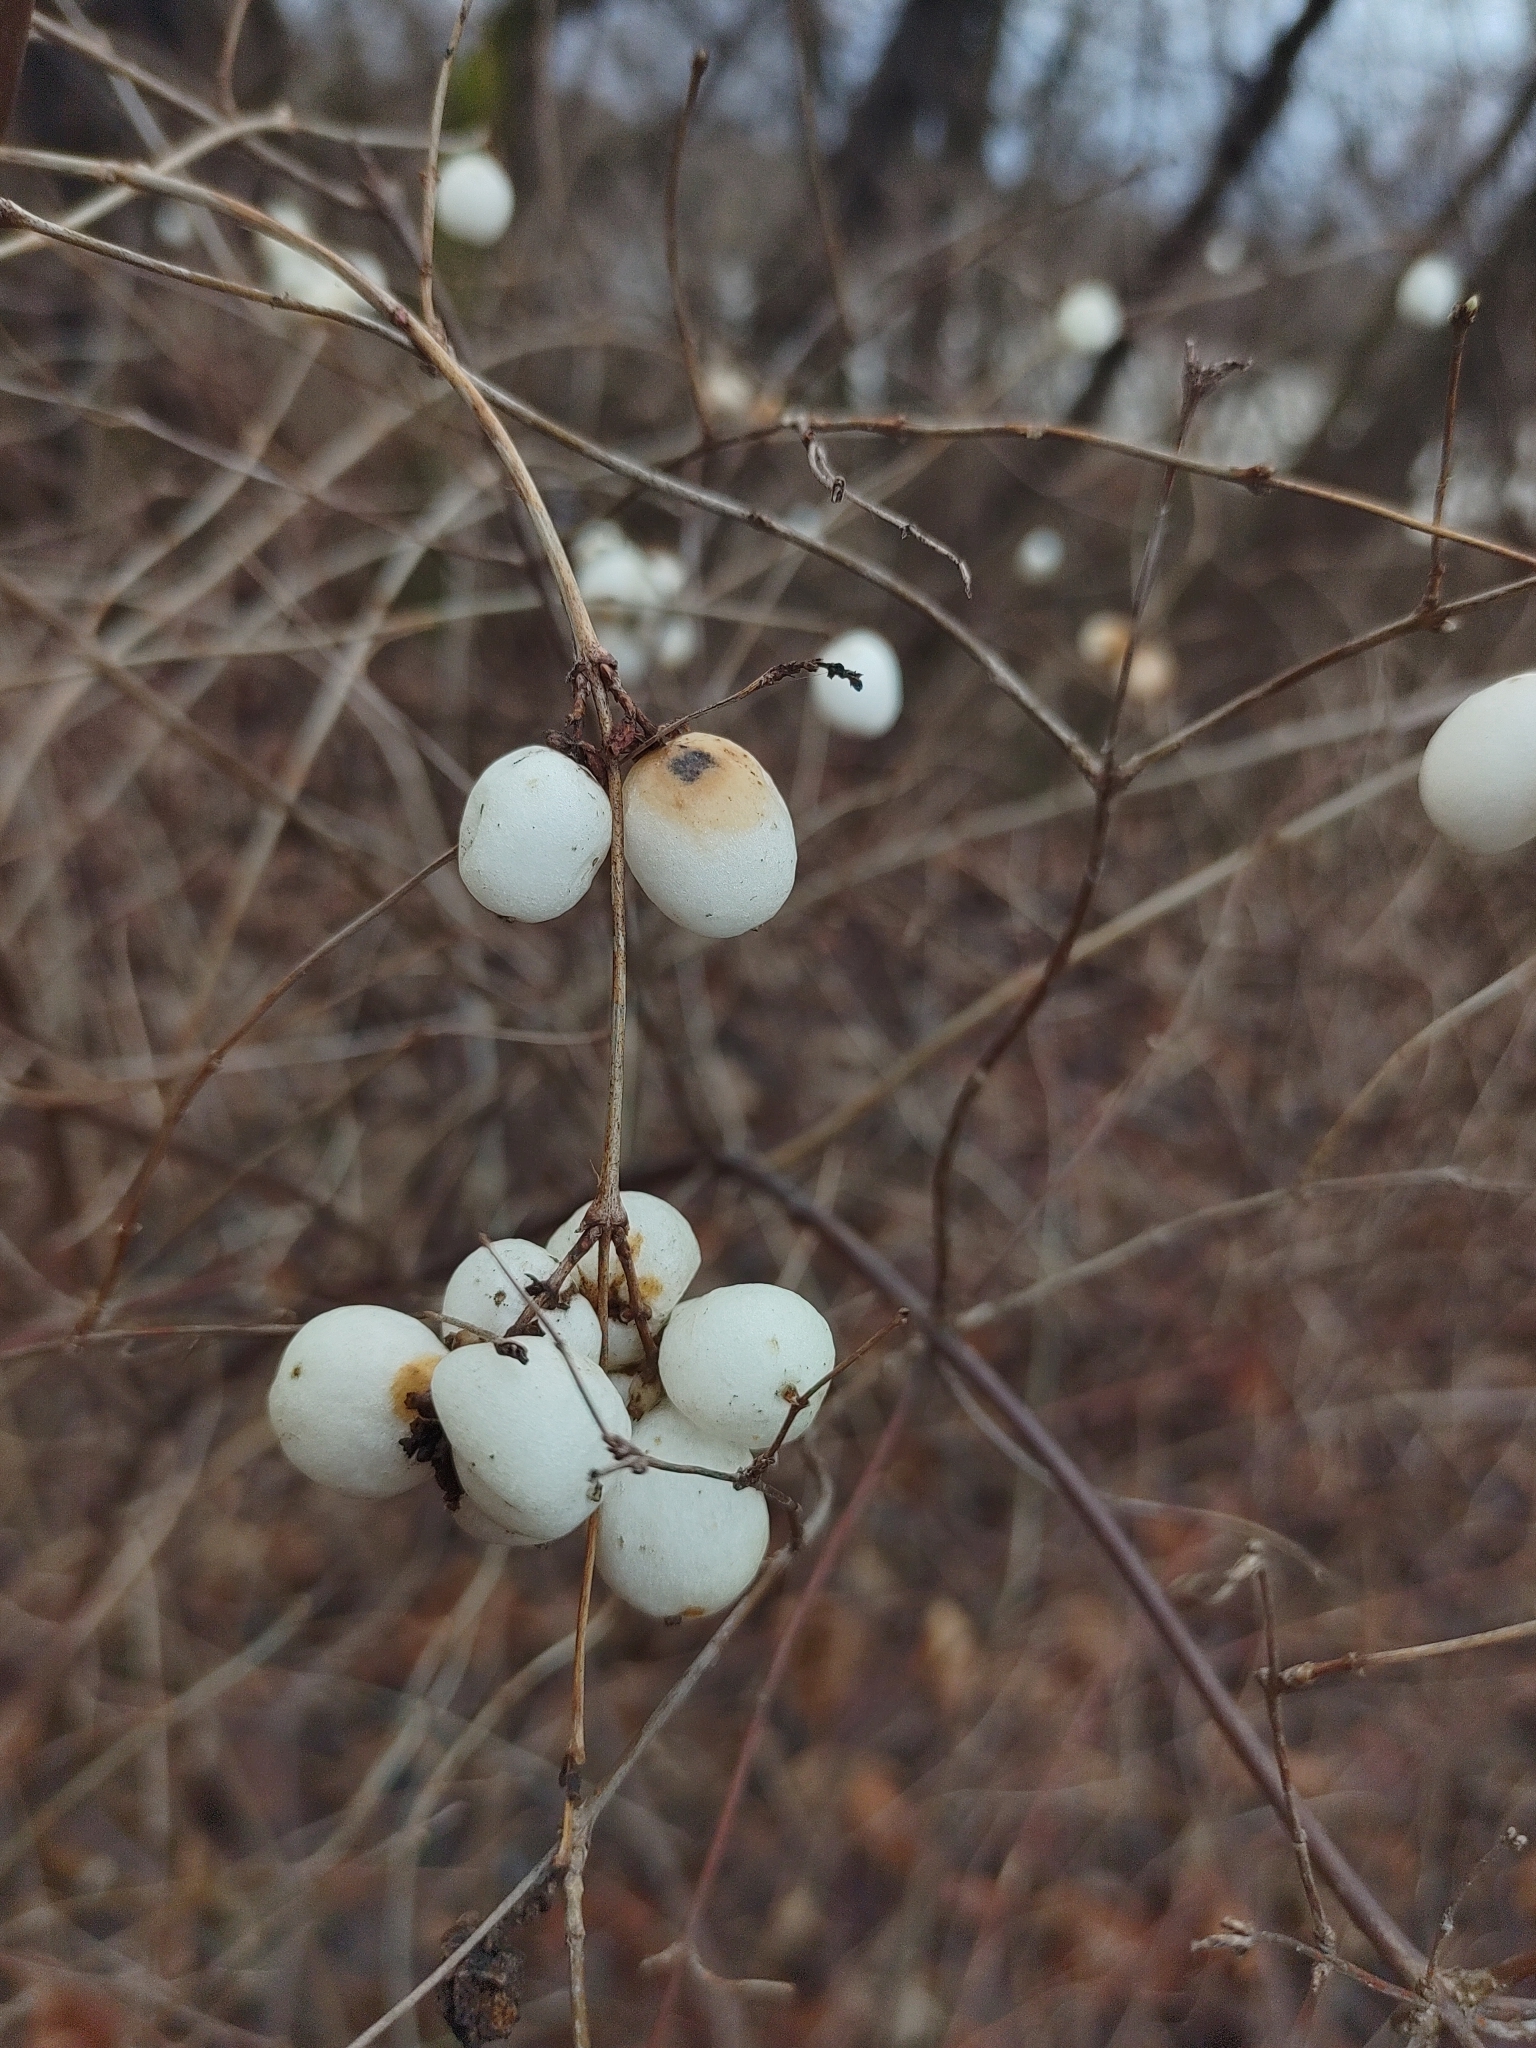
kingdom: Plantae
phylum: Tracheophyta
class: Magnoliopsida
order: Dipsacales
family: Caprifoliaceae
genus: Symphoricarpos
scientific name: Symphoricarpos albus
